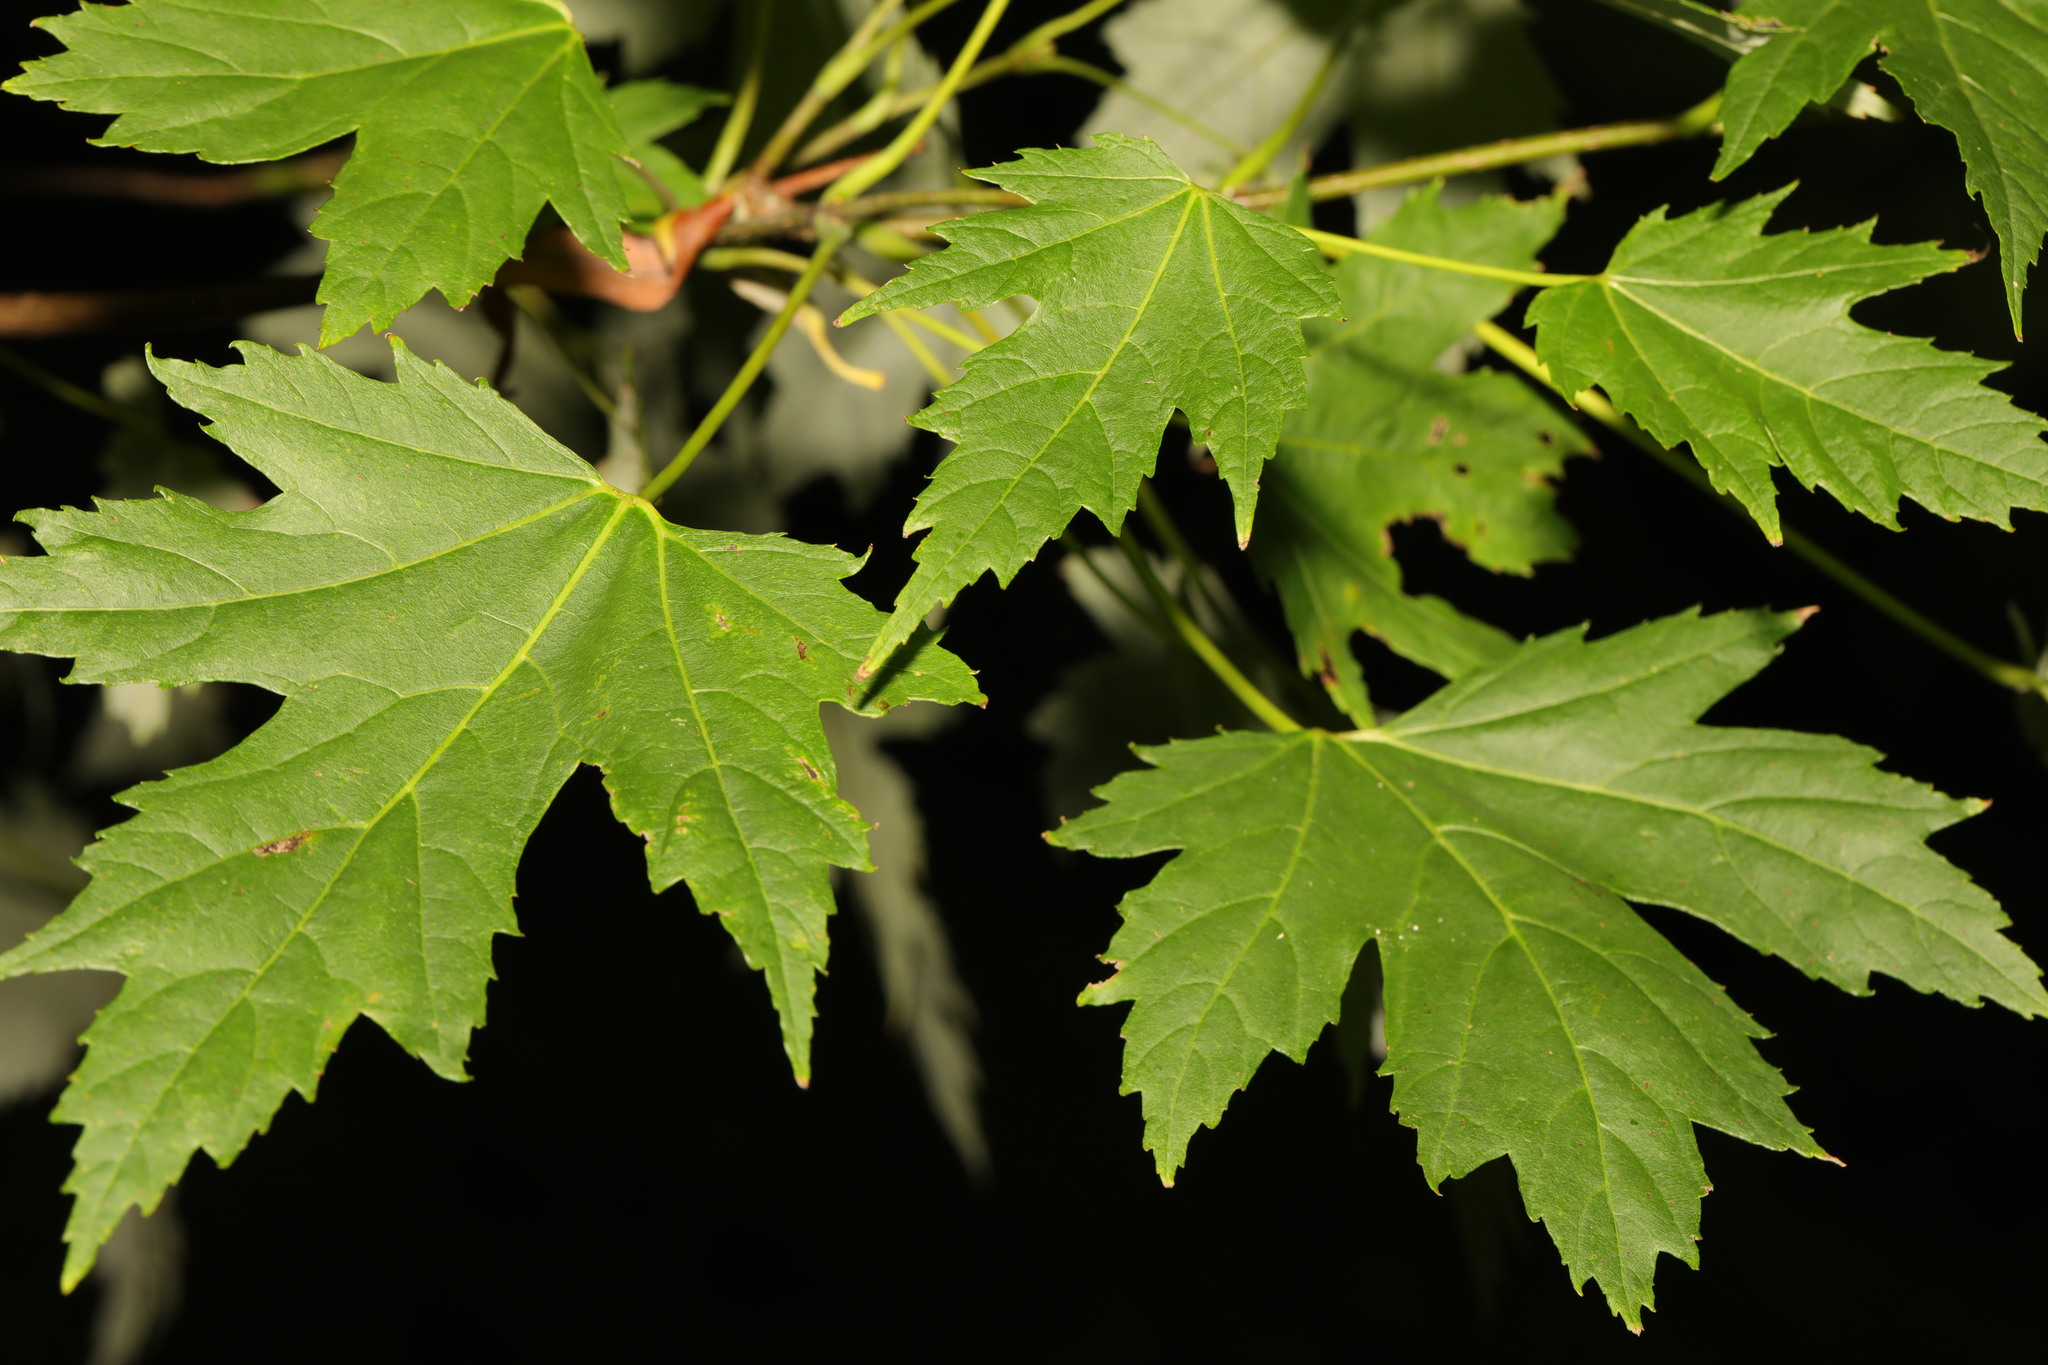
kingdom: Plantae
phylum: Tracheophyta
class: Magnoliopsida
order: Sapindales
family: Sapindaceae
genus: Acer
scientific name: Acer saccharinum
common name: Silver maple
